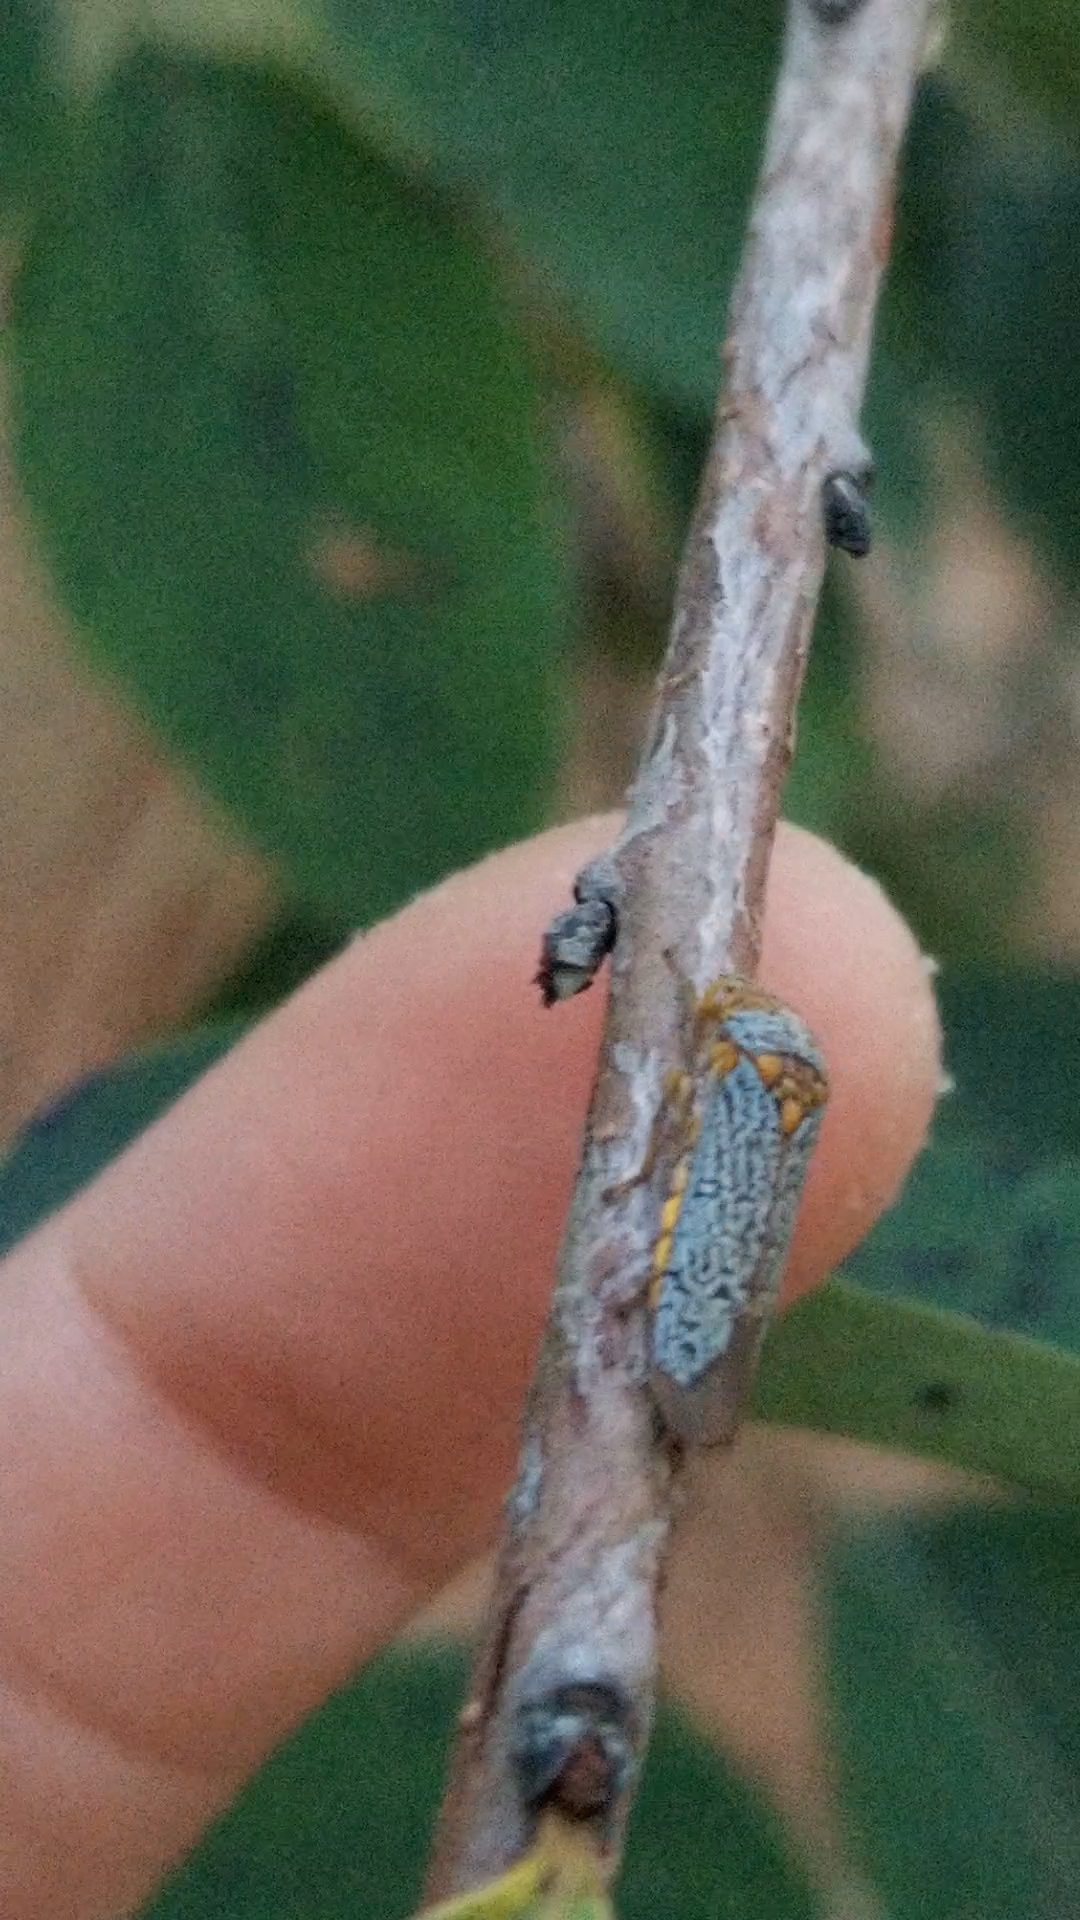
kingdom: Animalia
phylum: Arthropoda
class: Insecta
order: Hemiptera
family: Cicadellidae
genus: Oncometopia
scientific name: Oncometopia orbona
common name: Broad-headed sharpshooter
